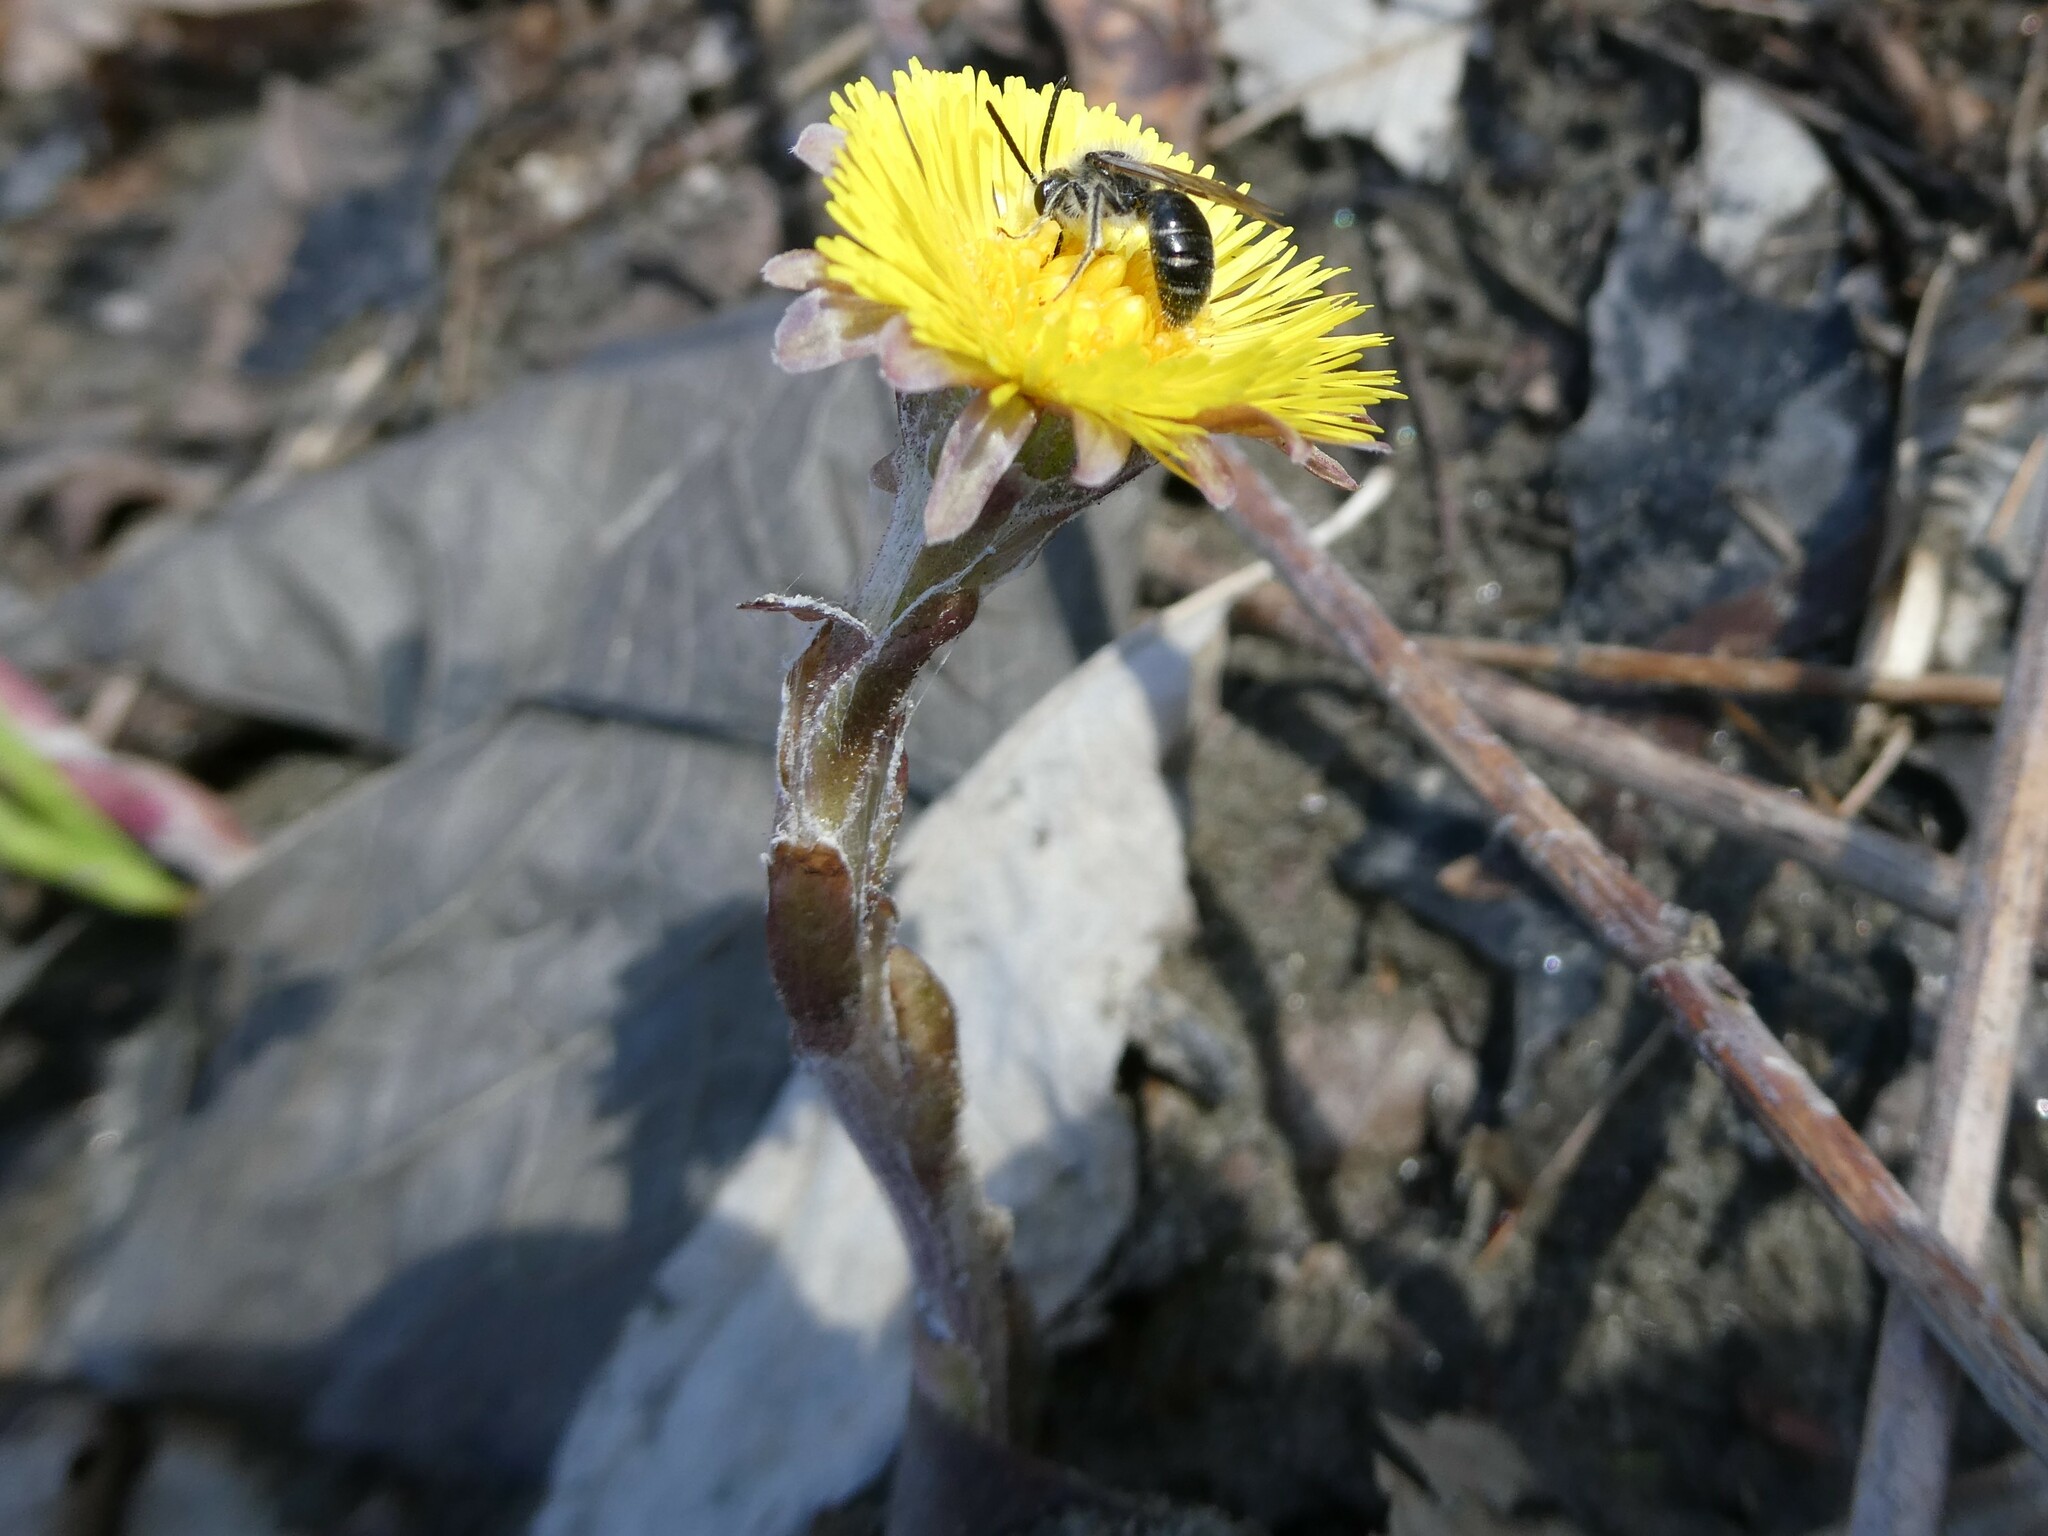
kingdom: Plantae
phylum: Tracheophyta
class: Magnoliopsida
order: Asterales
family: Asteraceae
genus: Tussilago
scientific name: Tussilago farfara
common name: Coltsfoot
